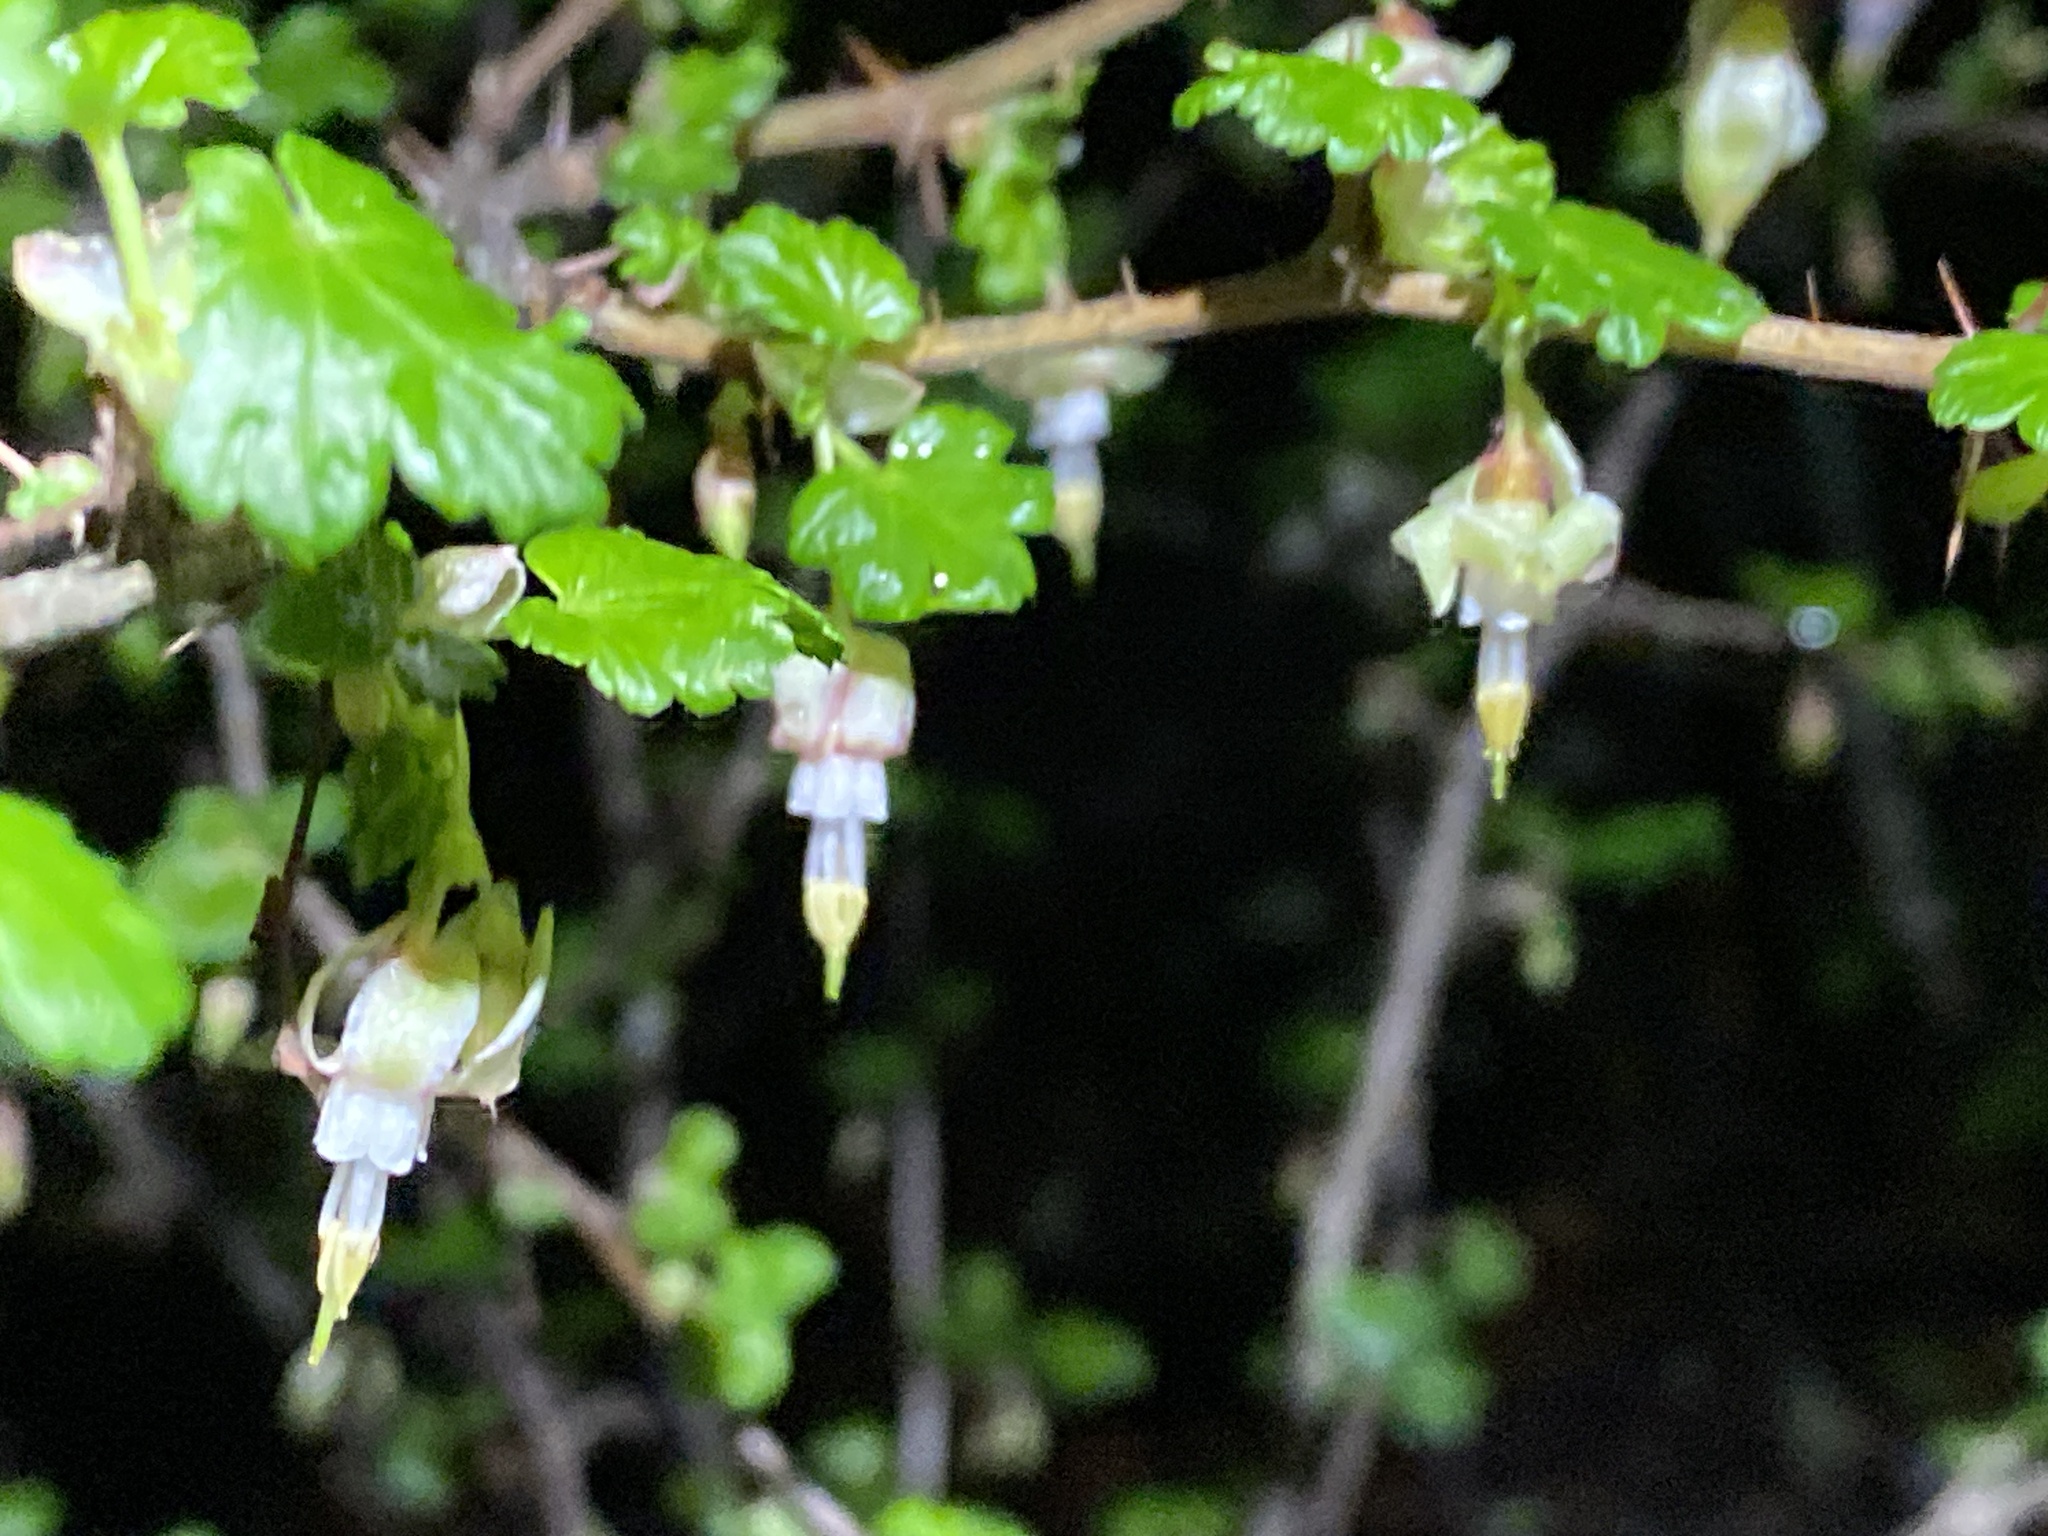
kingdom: Plantae
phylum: Tracheophyta
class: Magnoliopsida
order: Saxifragales
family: Grossulariaceae
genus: Ribes
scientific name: Ribes californicum
